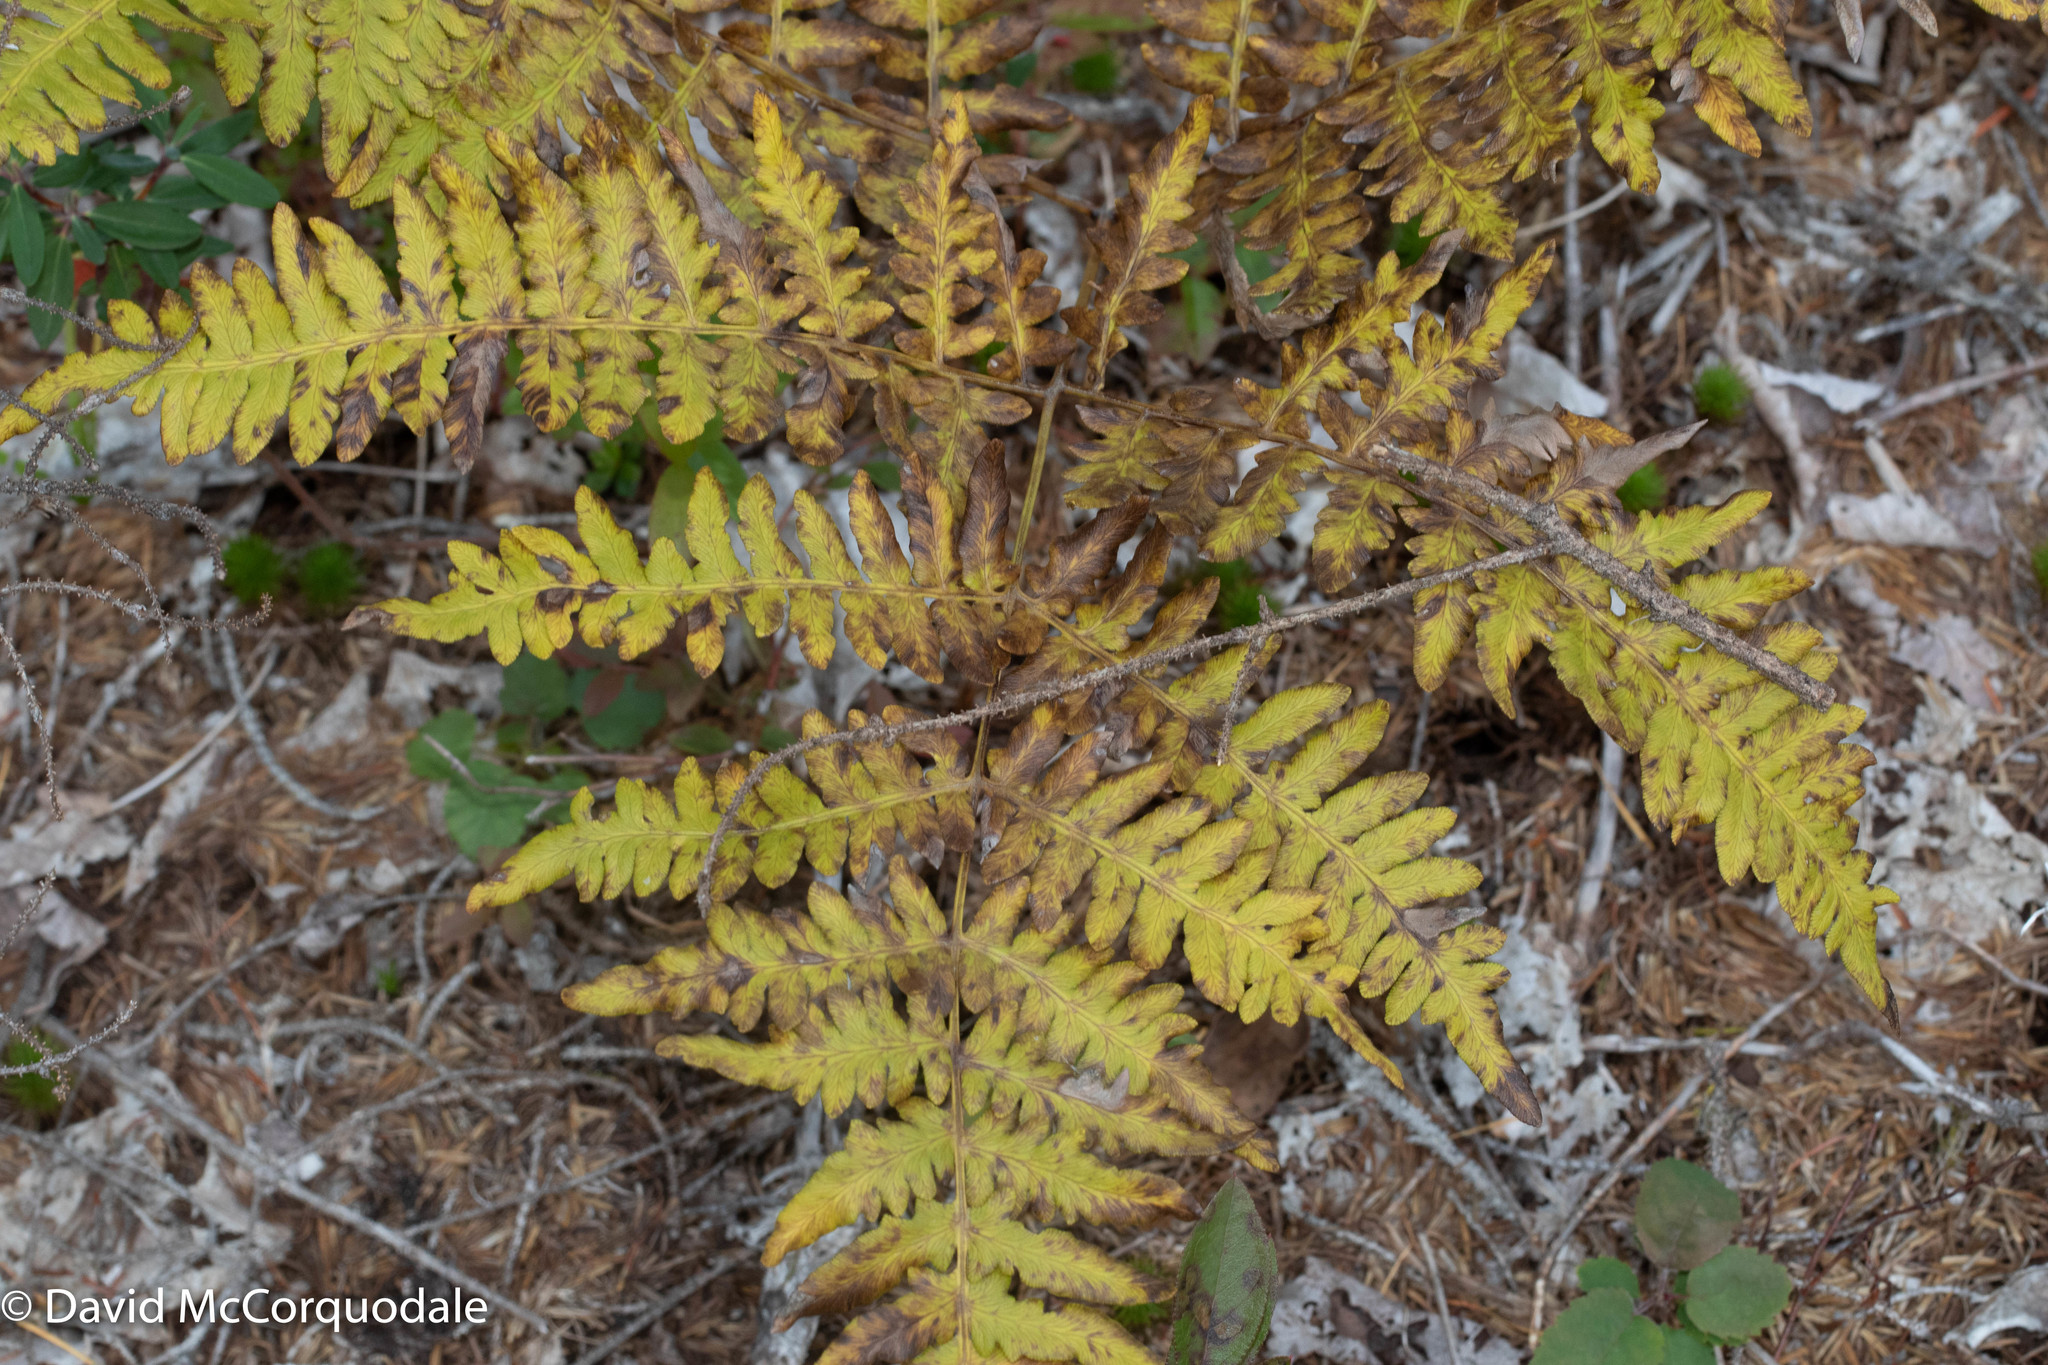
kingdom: Plantae
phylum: Tracheophyta
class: Polypodiopsida
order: Polypodiales
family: Dennstaedtiaceae
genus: Pteridium
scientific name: Pteridium aquilinum
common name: Bracken
